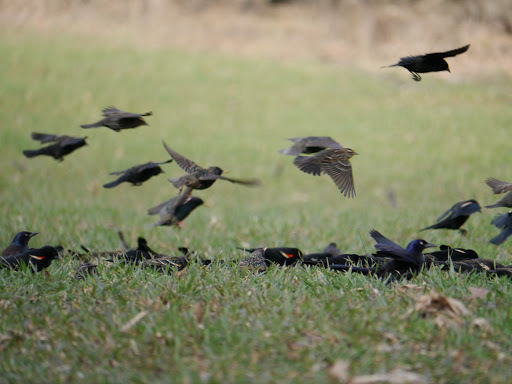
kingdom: Animalia
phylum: Chordata
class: Aves
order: Passeriformes
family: Icteridae
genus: Agelaius
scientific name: Agelaius phoeniceus
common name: Red-winged blackbird
